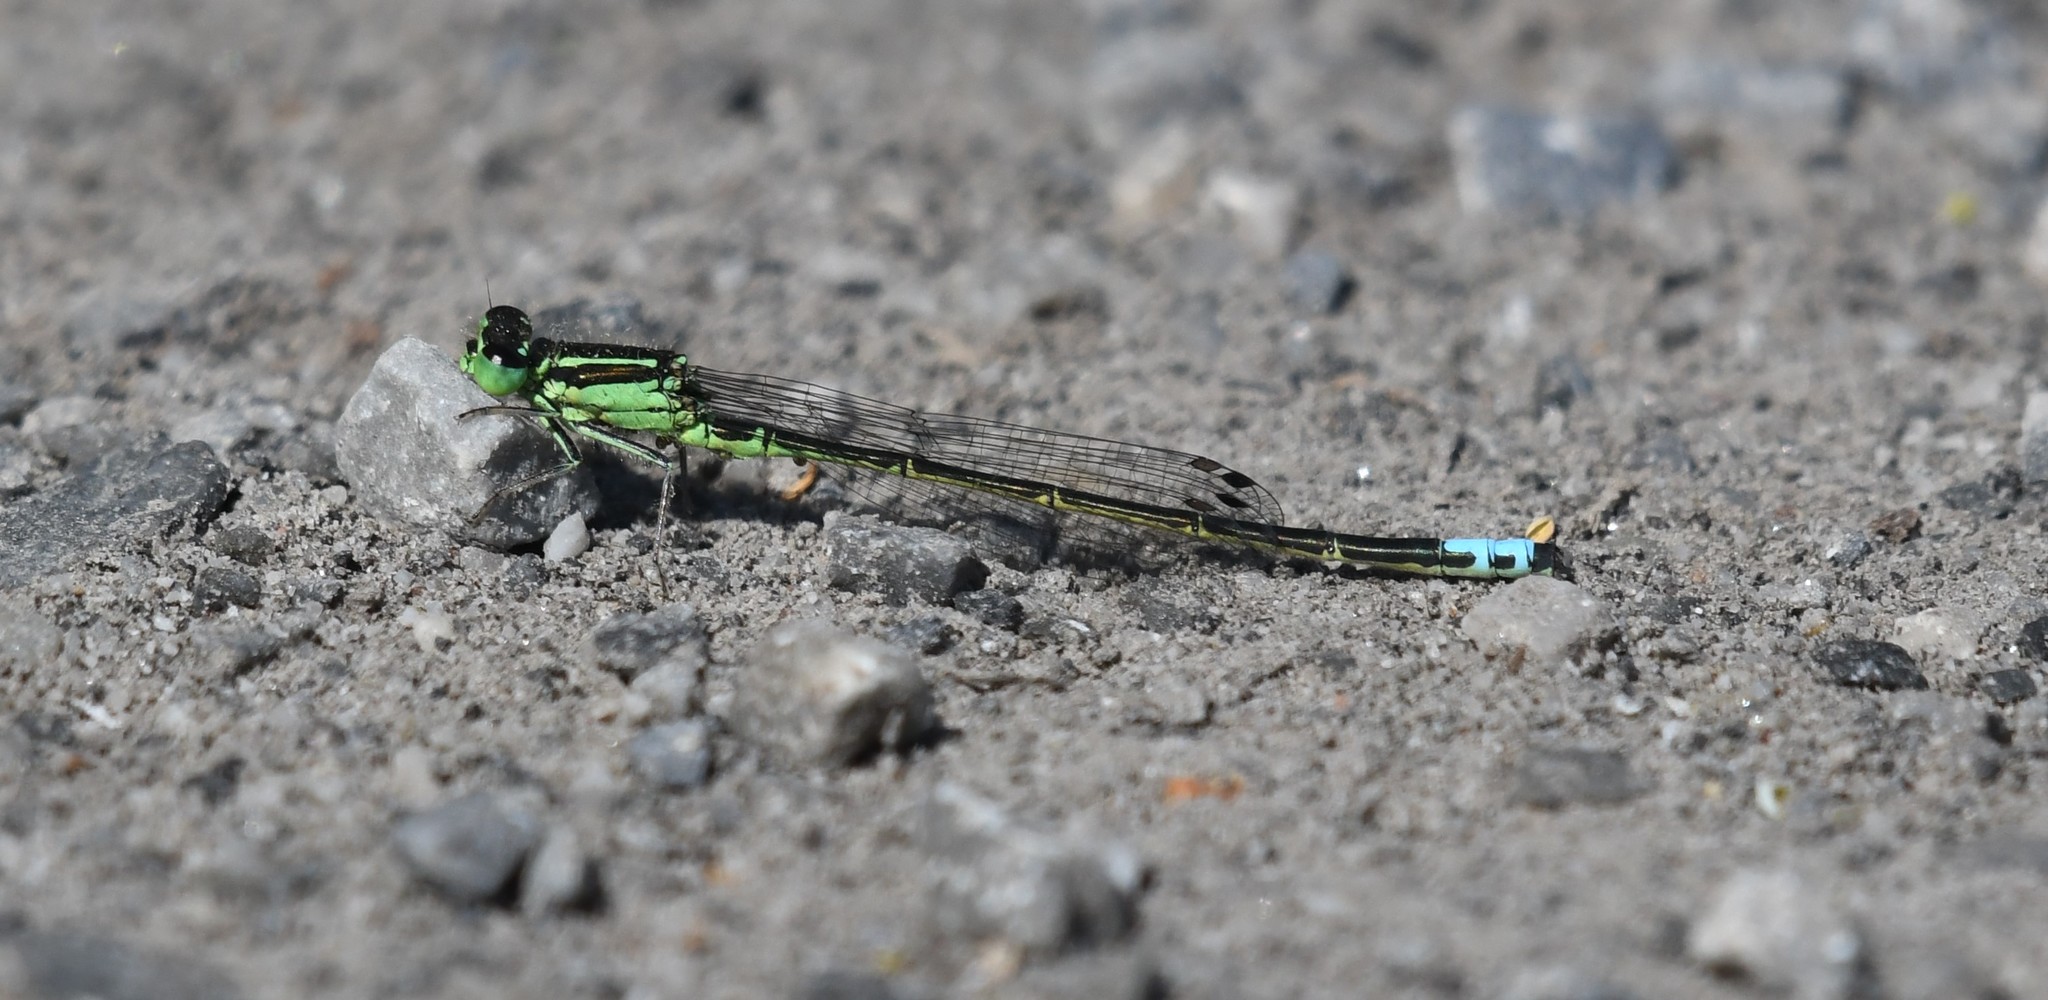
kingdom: Animalia
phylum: Arthropoda
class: Insecta
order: Odonata
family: Coenagrionidae
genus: Ischnura
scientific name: Ischnura verticalis
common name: Eastern forktail
